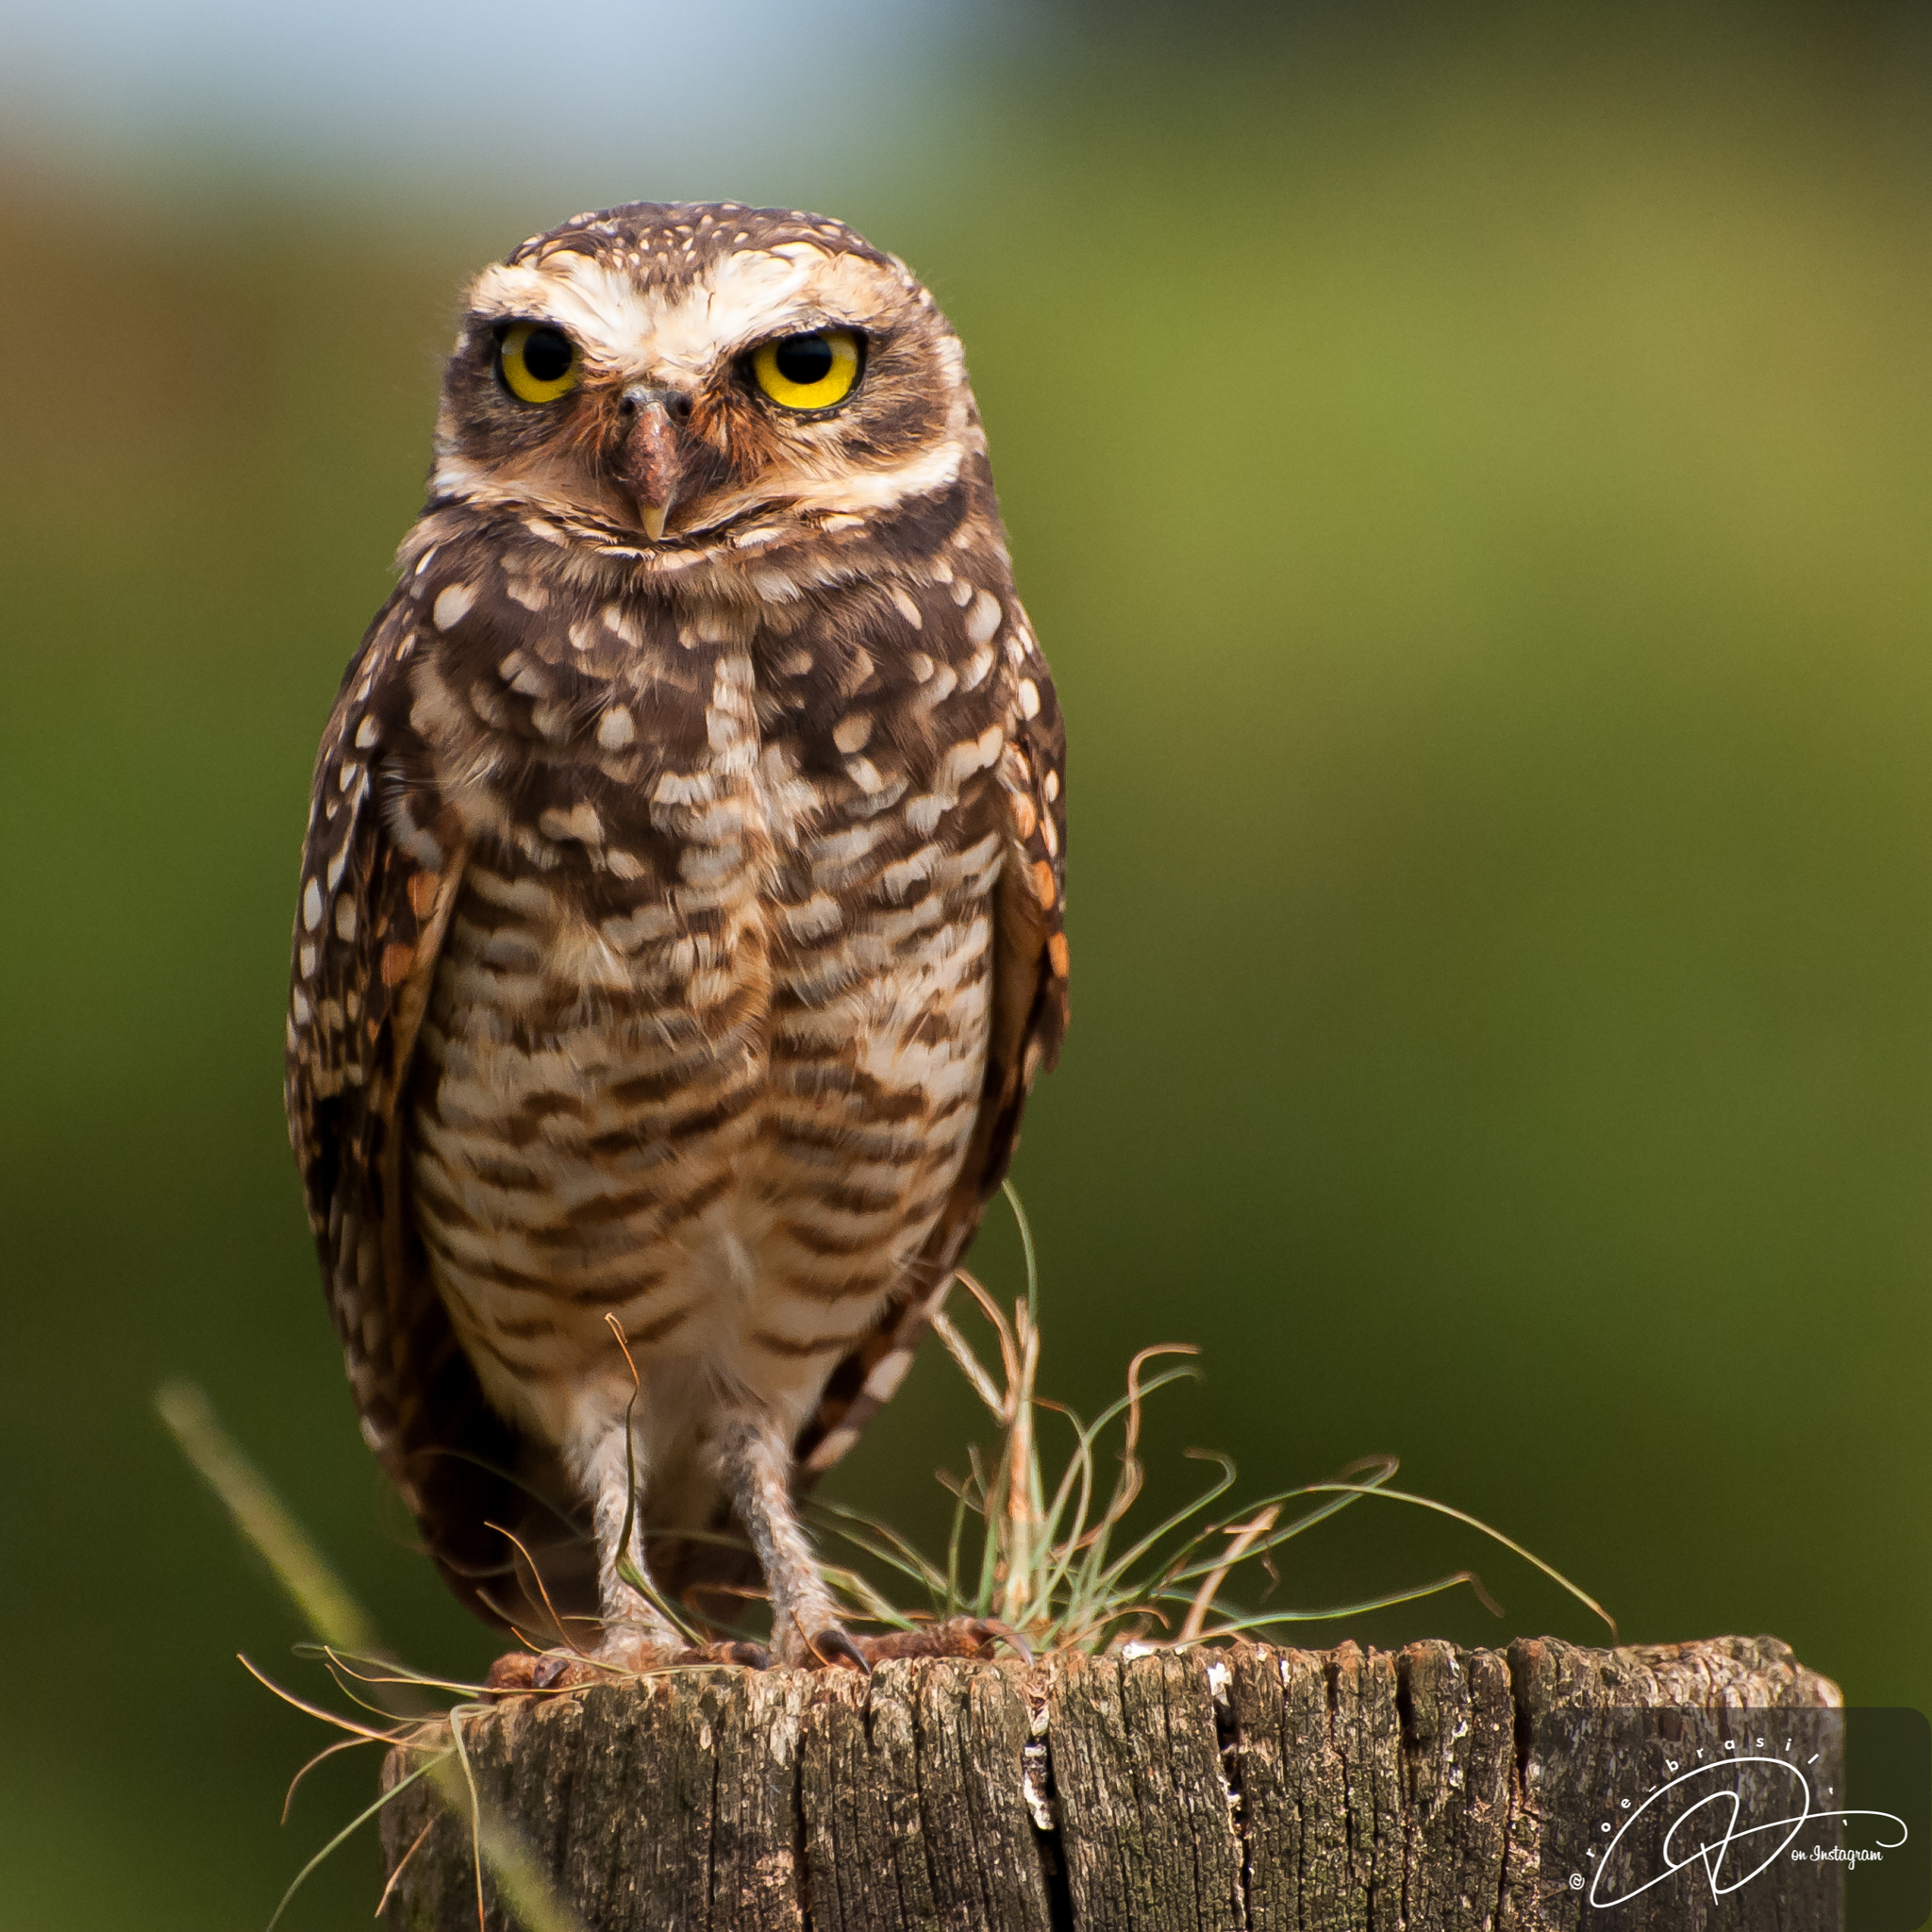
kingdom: Animalia
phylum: Chordata
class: Aves
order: Strigiformes
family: Strigidae
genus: Athene
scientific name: Athene cunicularia
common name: Burrowing owl
